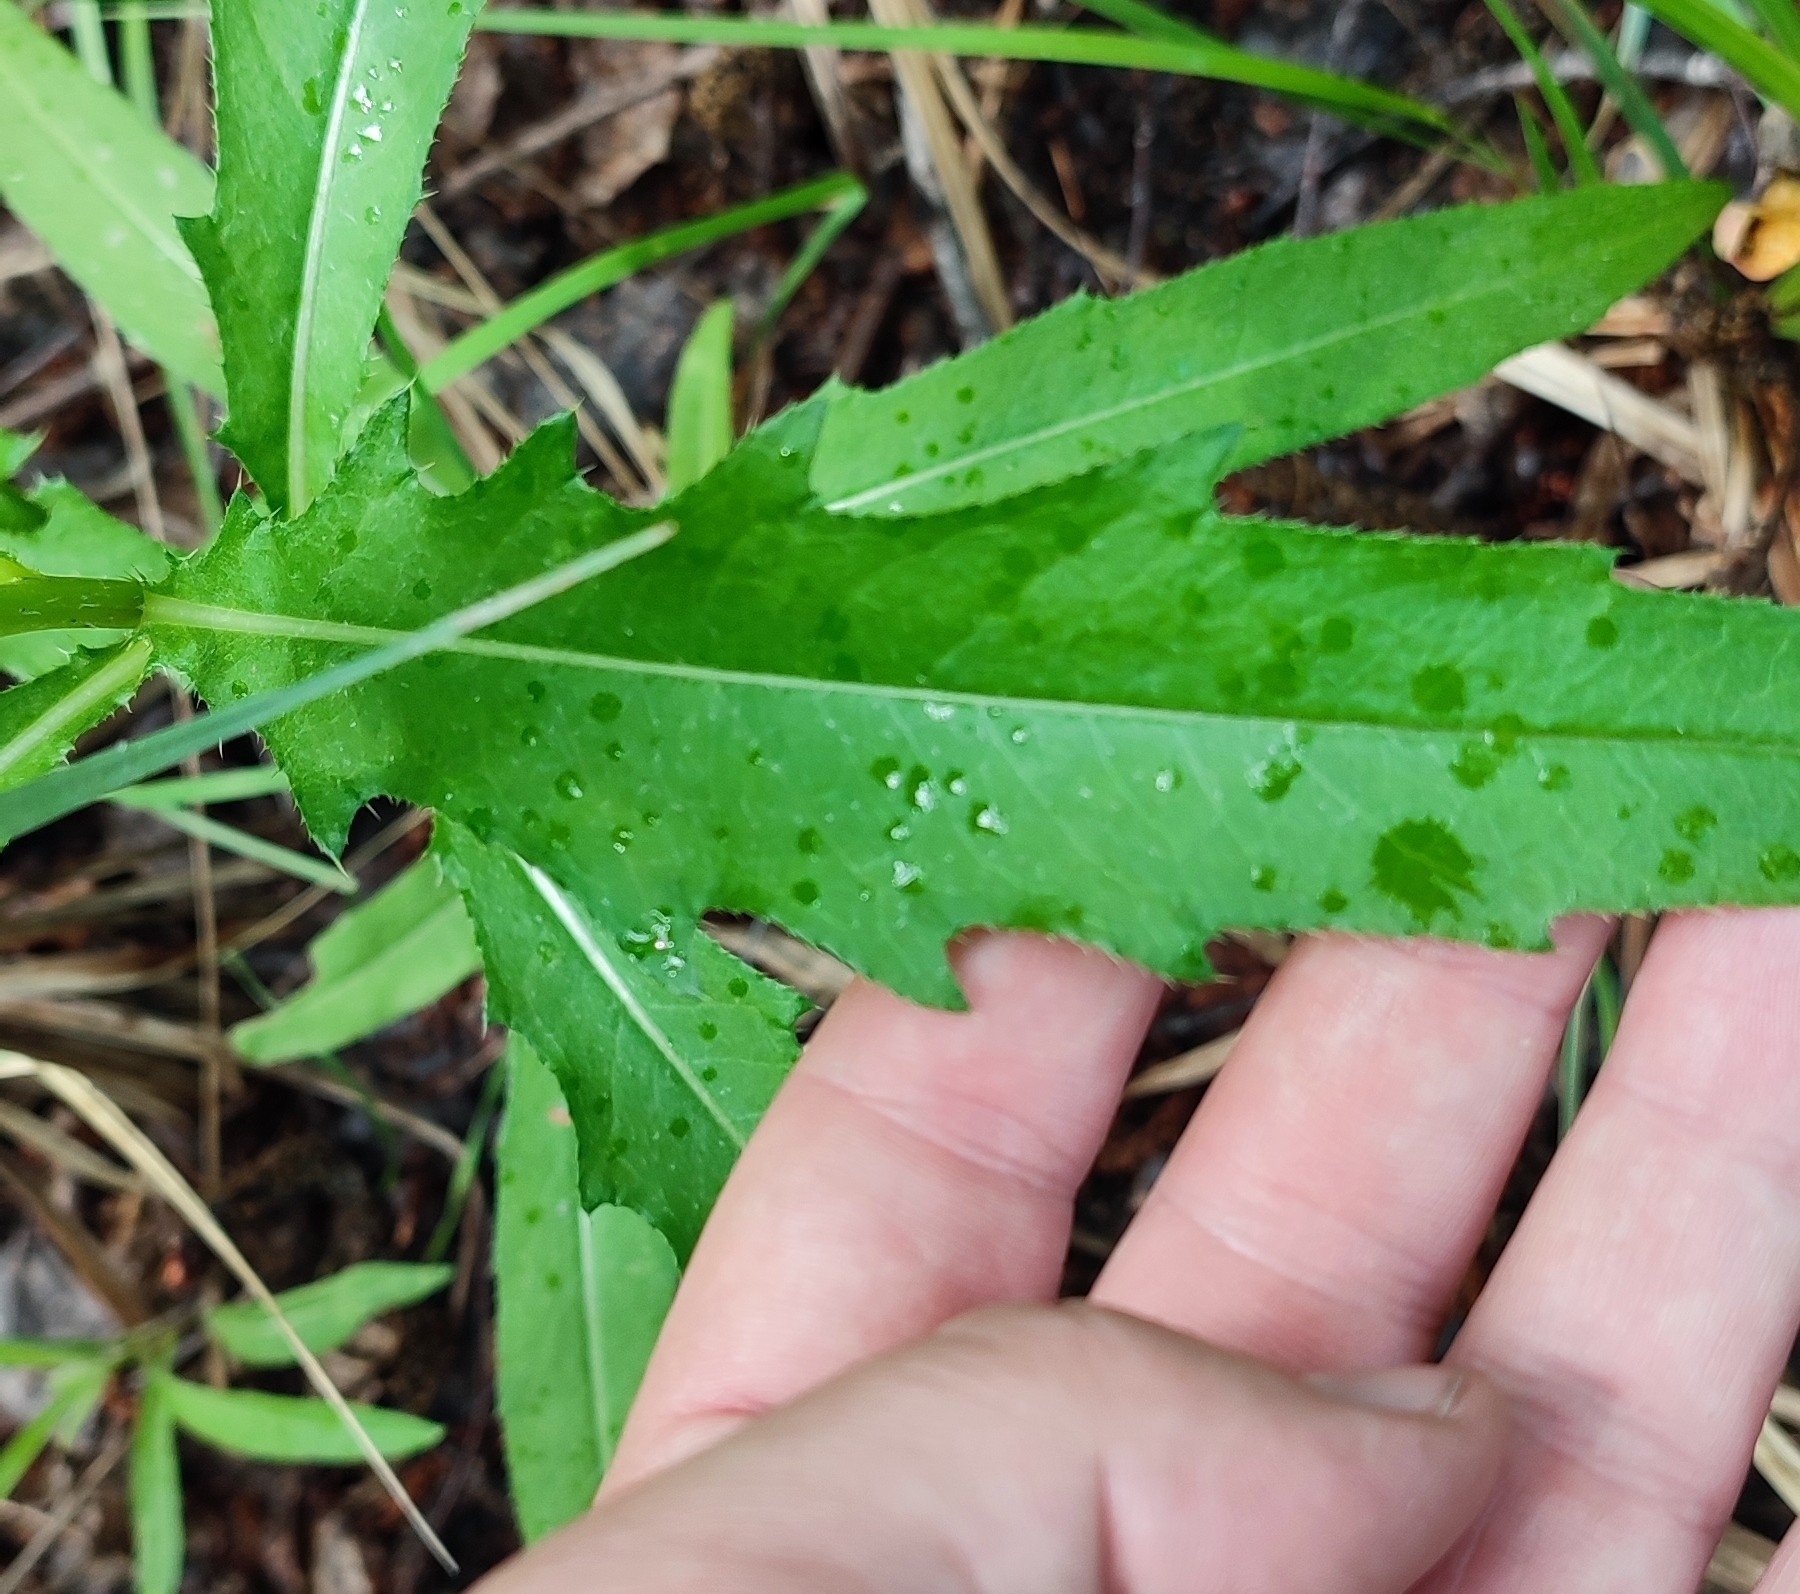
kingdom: Plantae
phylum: Tracheophyta
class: Magnoliopsida
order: Asterales
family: Asteraceae
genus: Cirsium
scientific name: Cirsium arvense
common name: Creeping thistle
